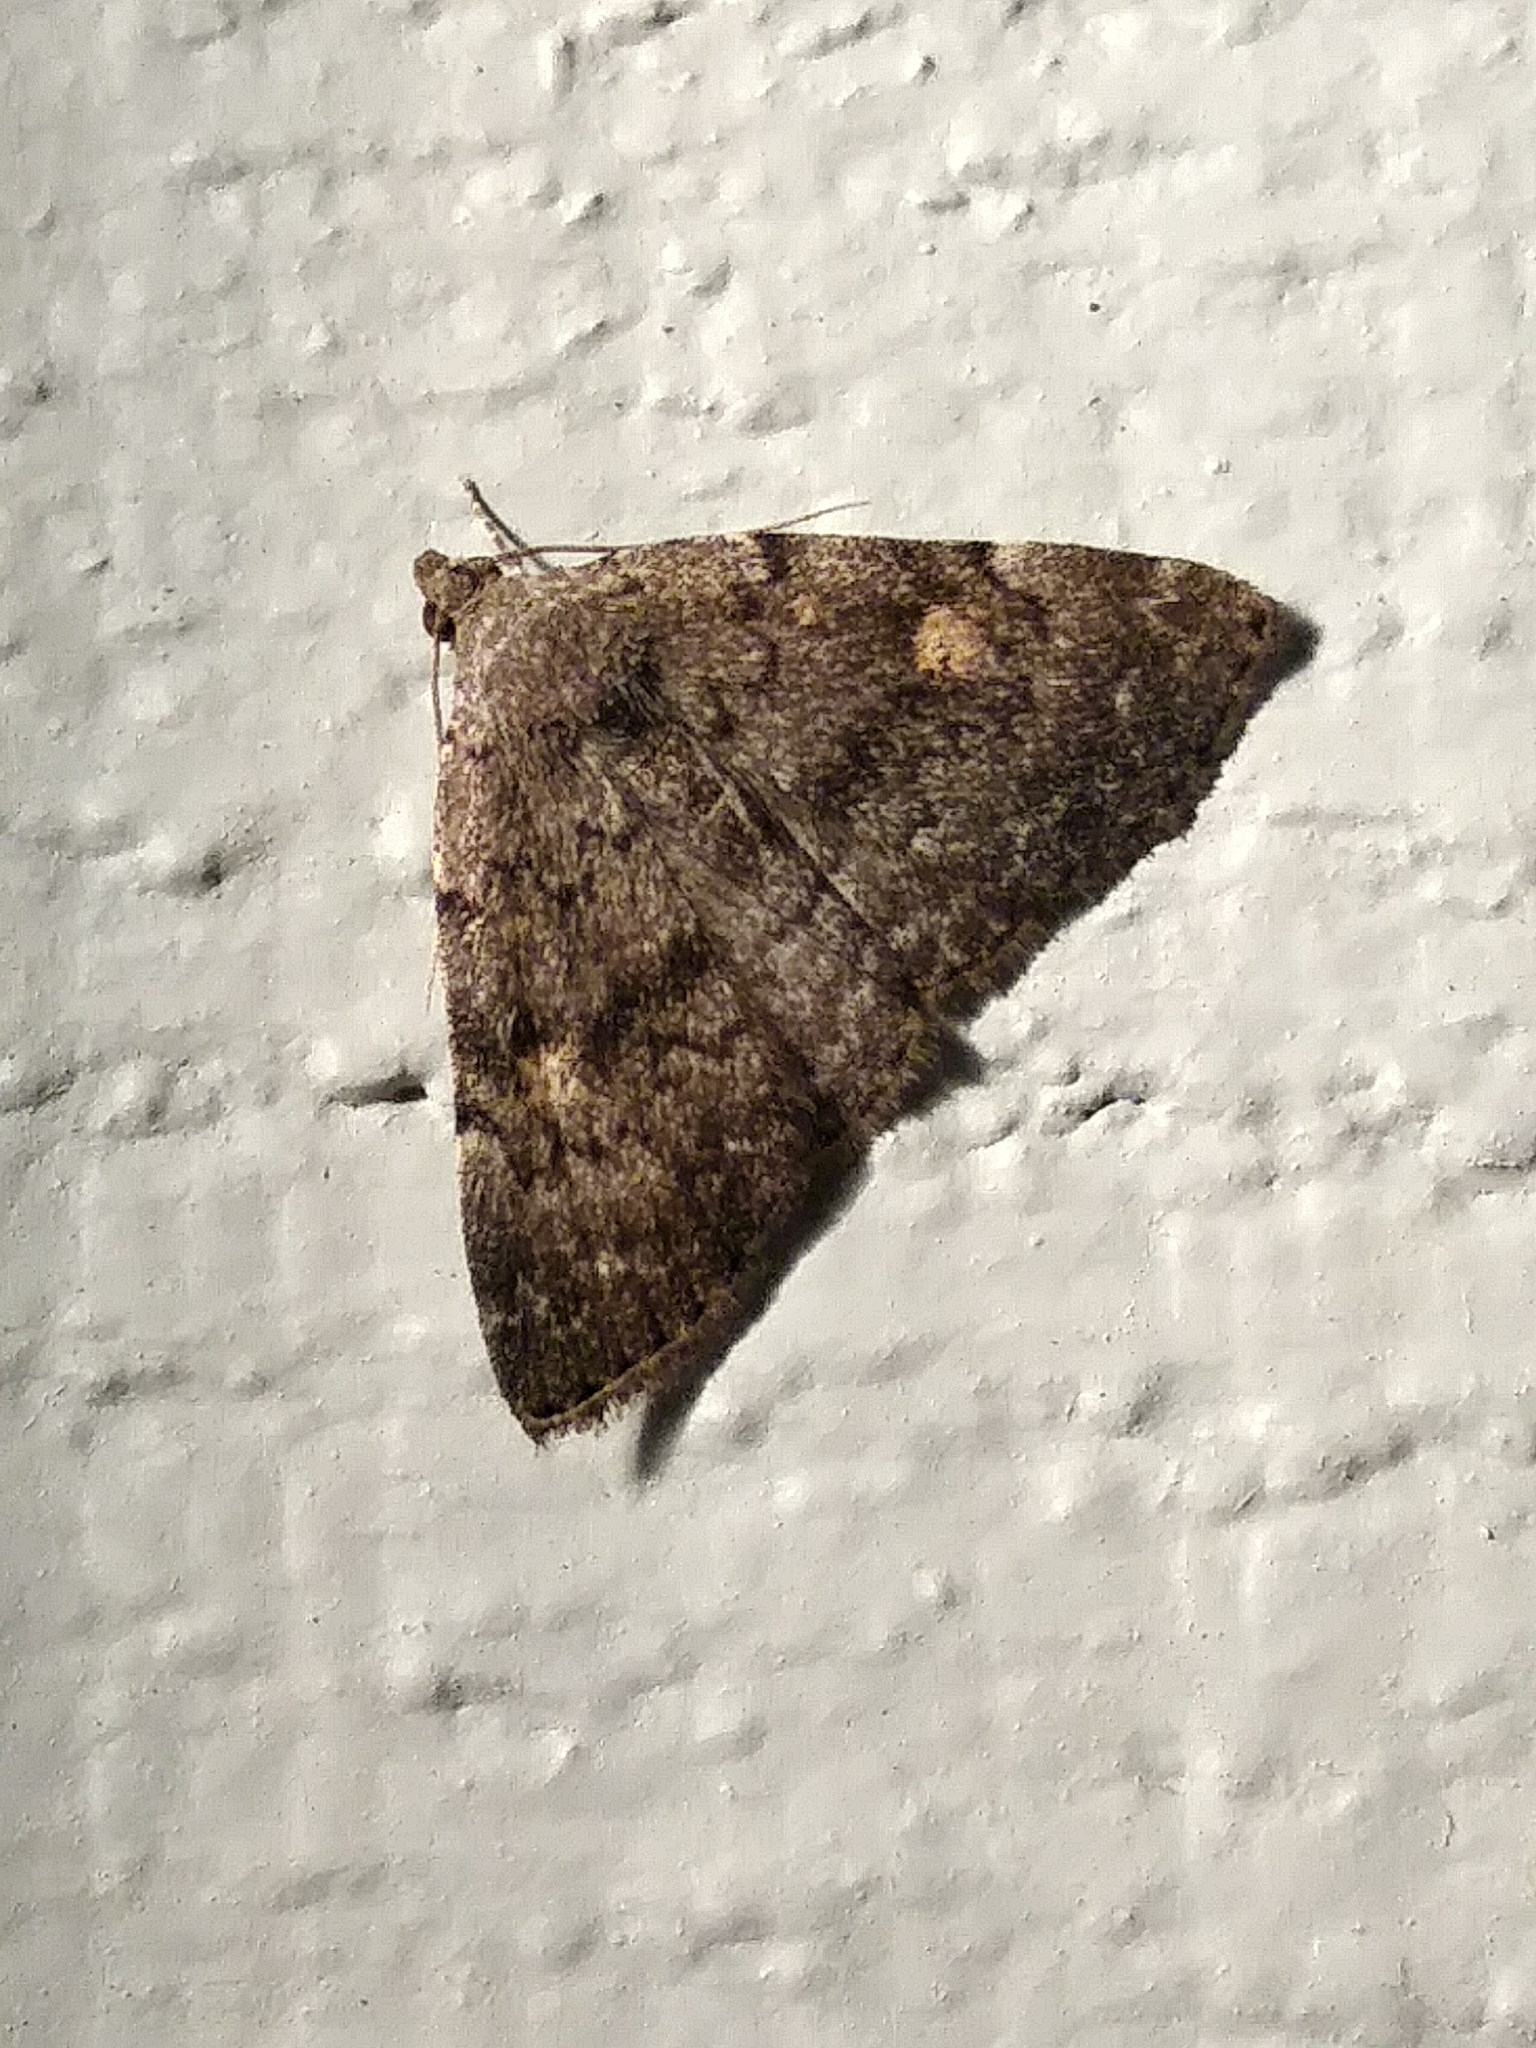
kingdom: Animalia
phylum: Arthropoda
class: Insecta
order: Lepidoptera
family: Erebidae
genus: Idia
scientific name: Idia aemula
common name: Common idia moth
